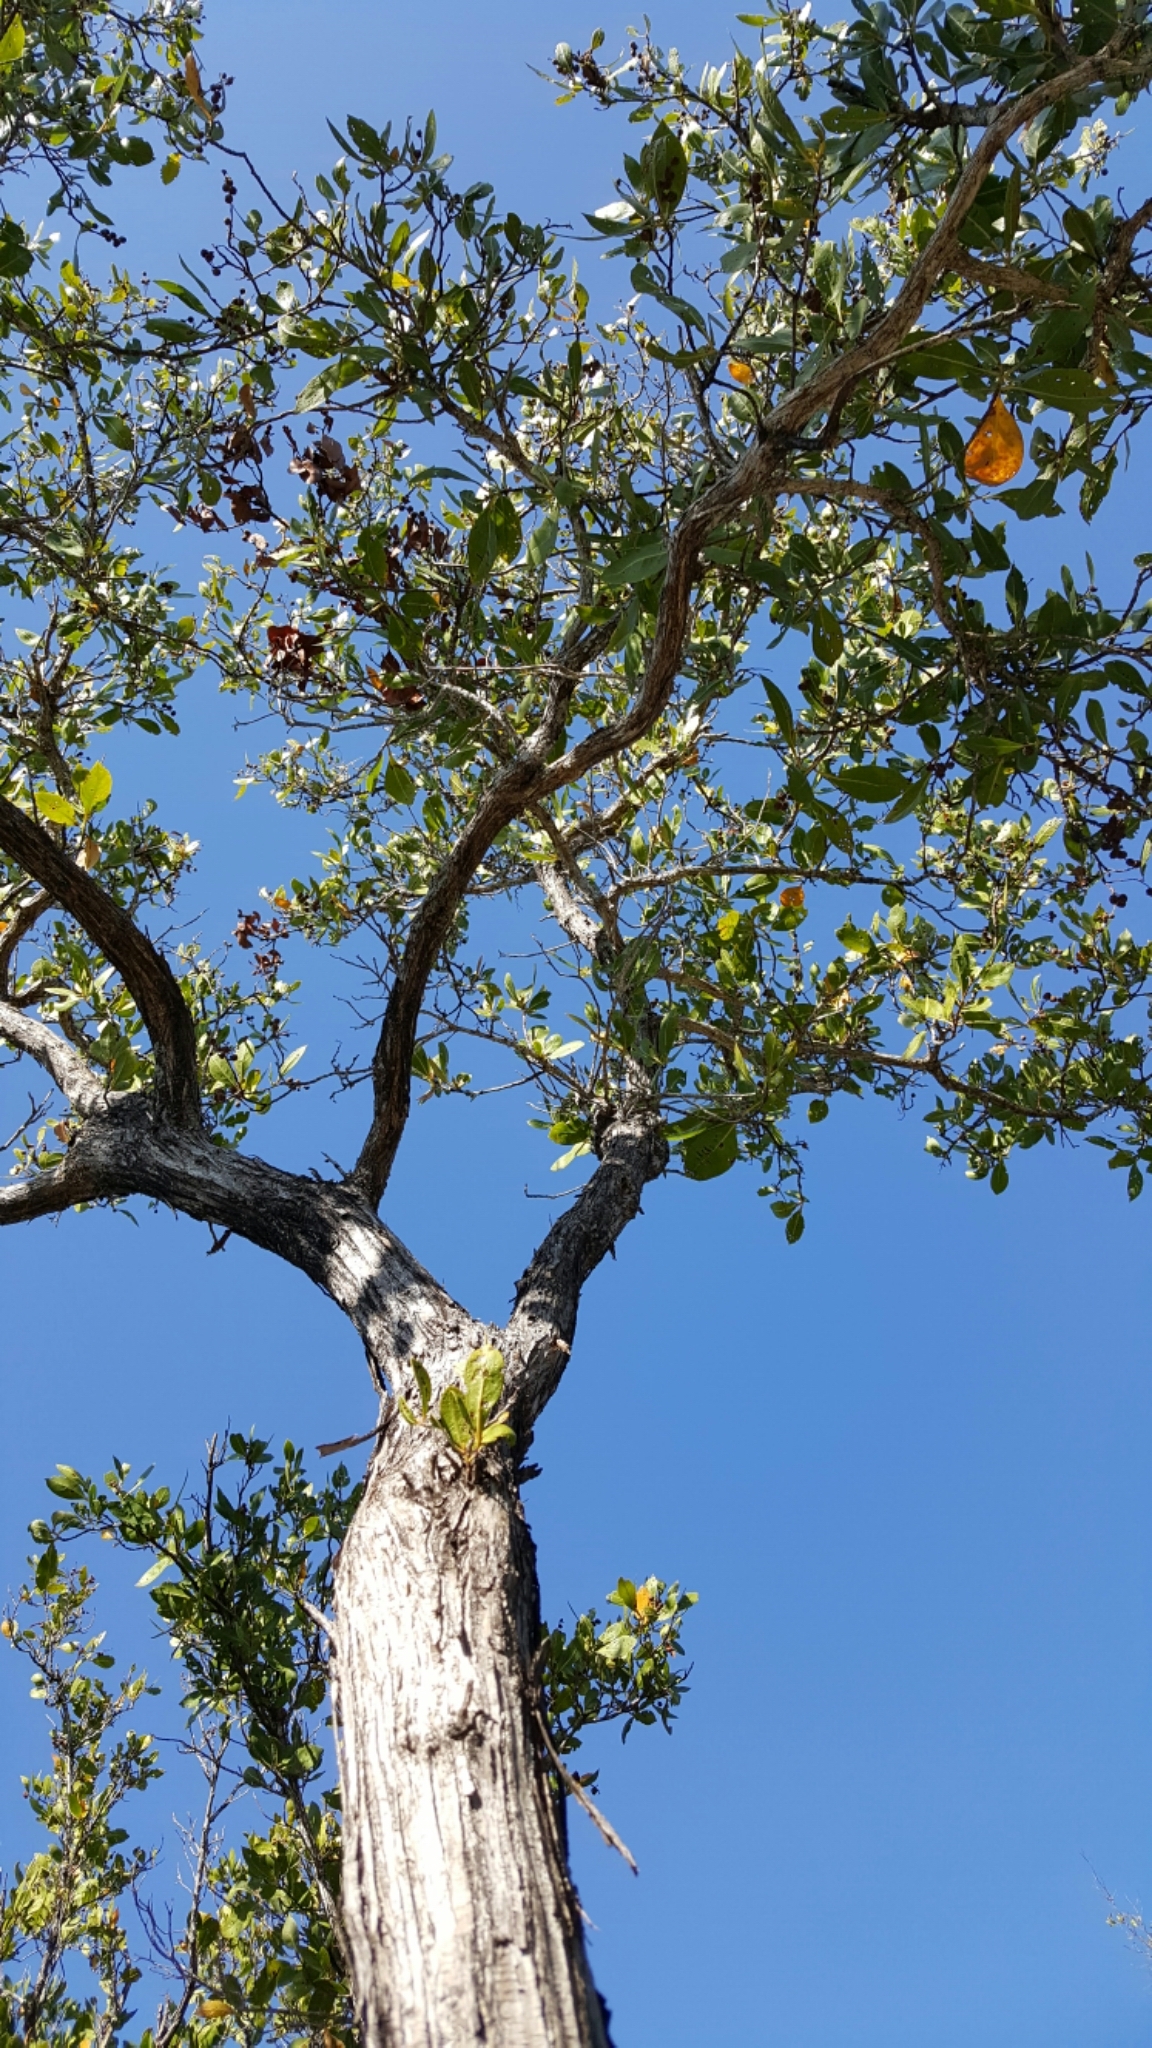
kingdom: Plantae
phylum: Tracheophyta
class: Magnoliopsida
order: Myrtales
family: Combretaceae
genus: Conocarpus
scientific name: Conocarpus erectus
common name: Button mangrove
